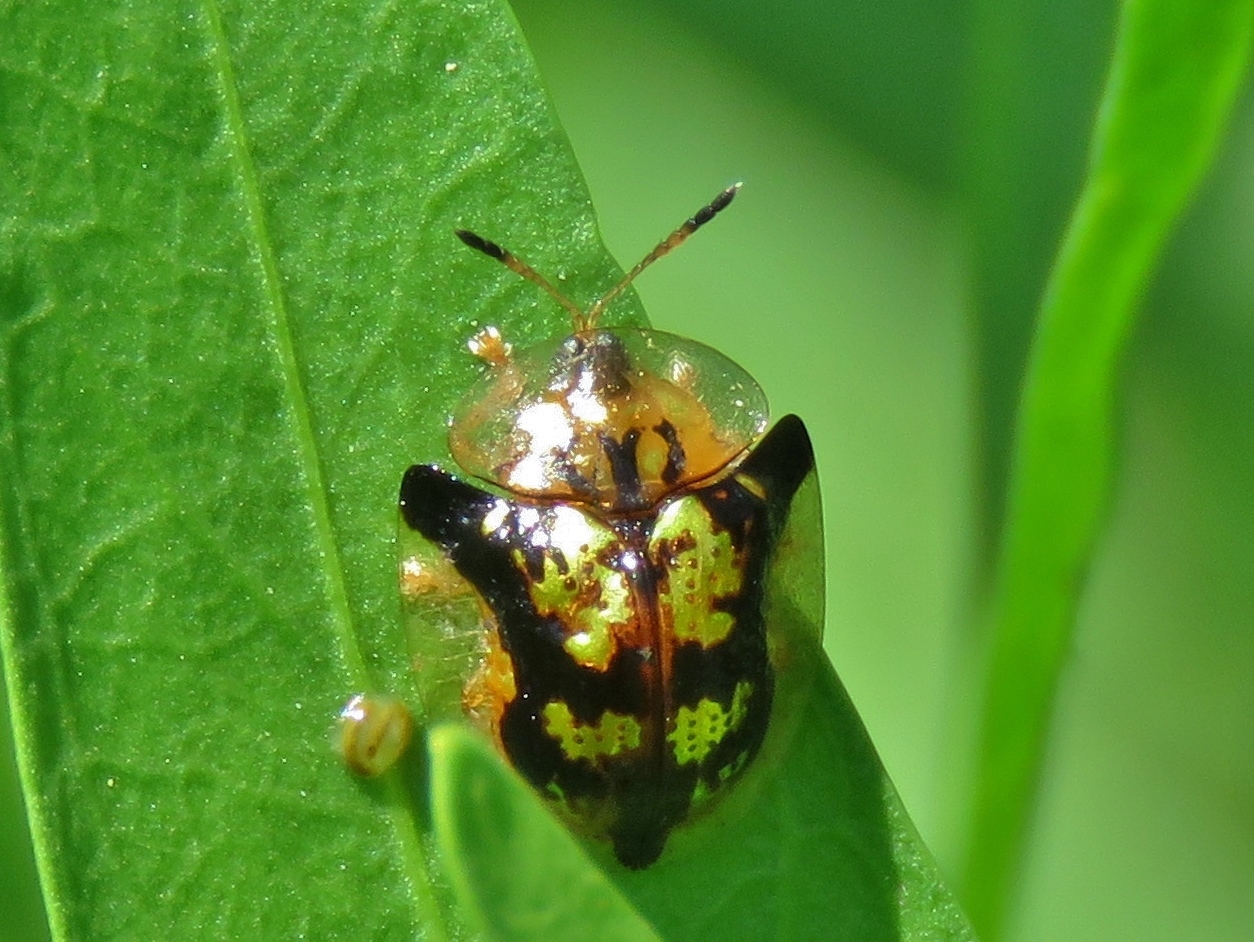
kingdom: Animalia
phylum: Arthropoda
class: Insecta
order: Coleoptera
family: Chrysomelidae
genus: Deloyala
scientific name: Deloyala guttata
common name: Mottled tortoise beetle
